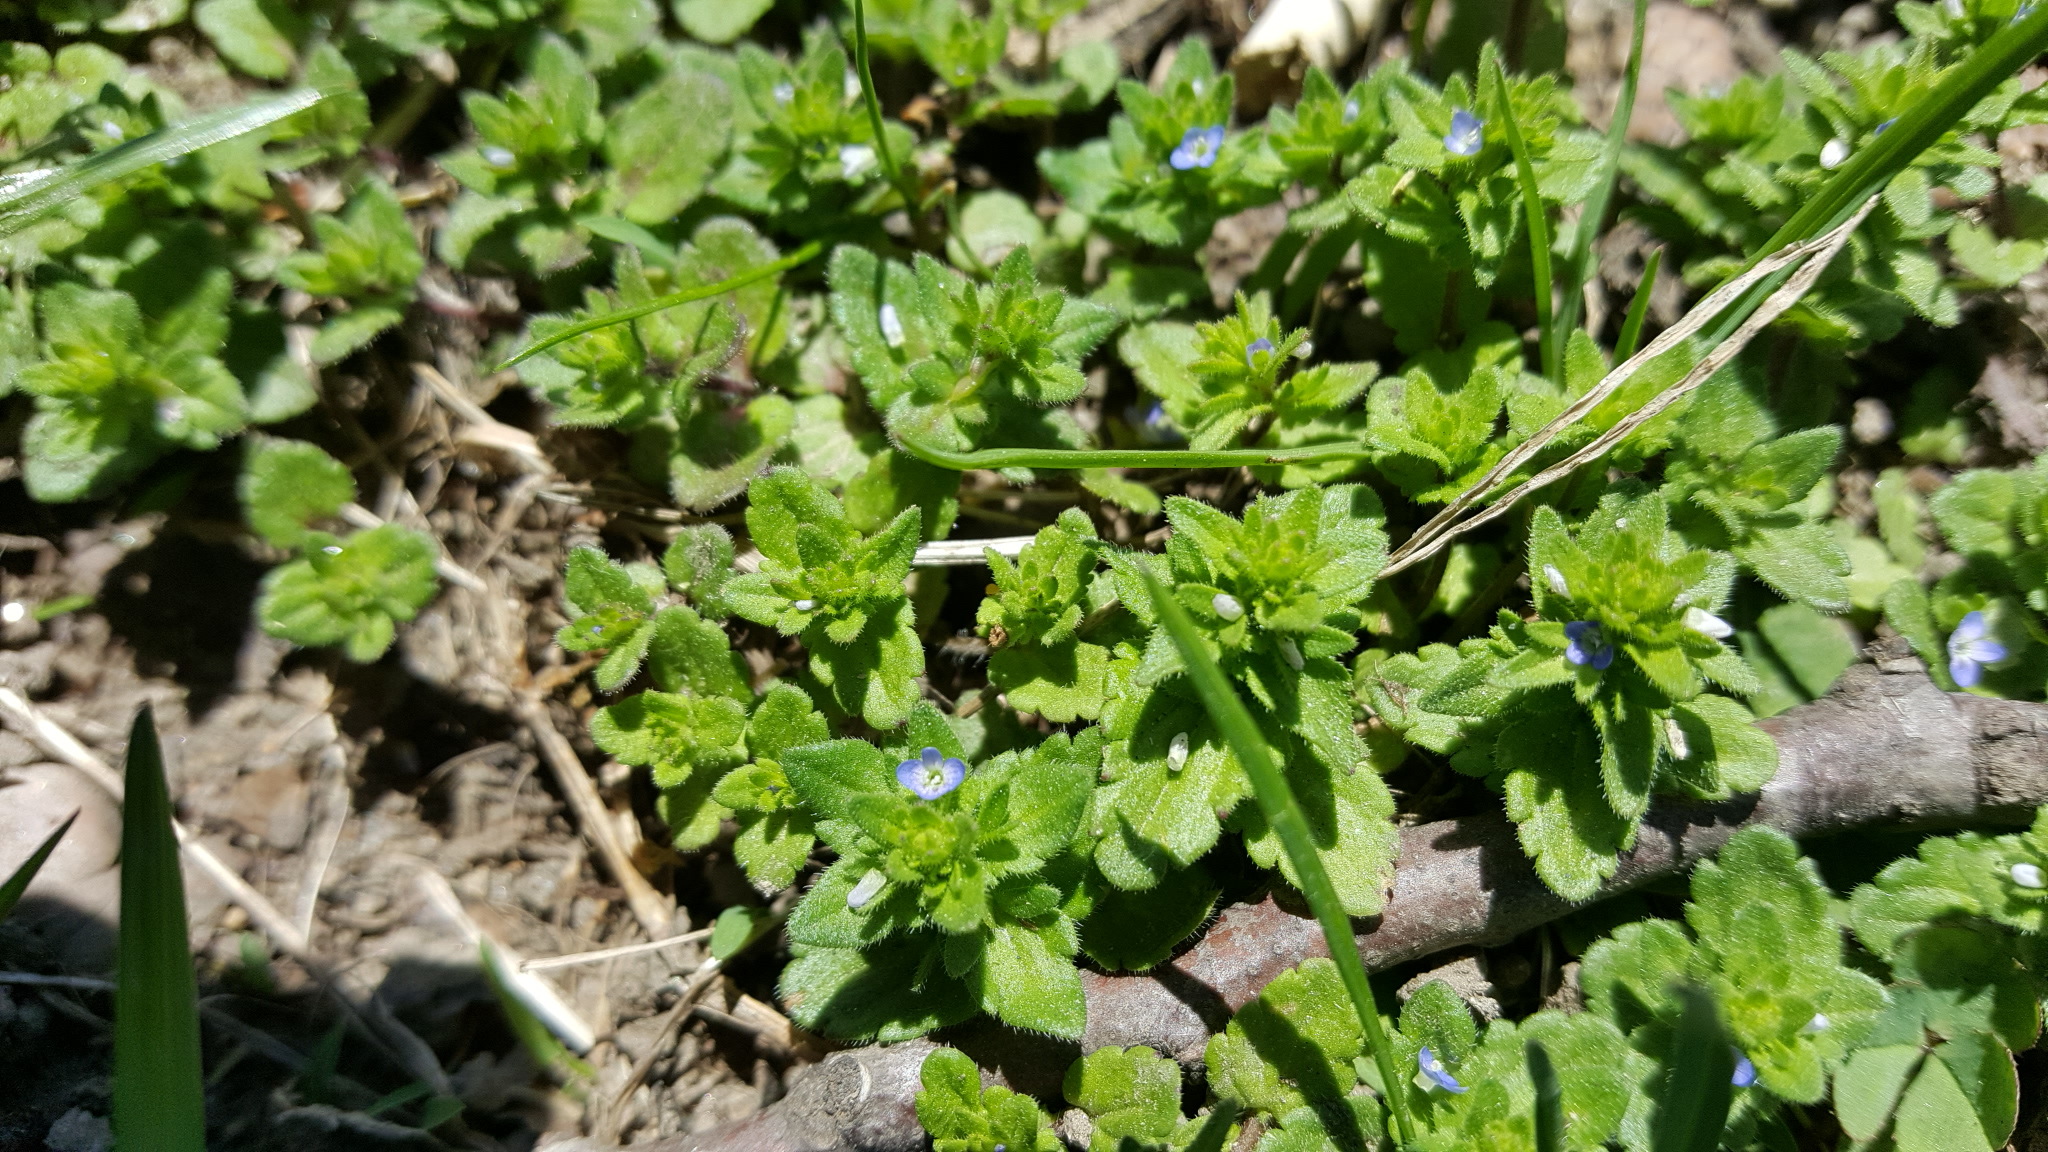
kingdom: Plantae
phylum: Tracheophyta
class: Magnoliopsida
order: Lamiales
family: Plantaginaceae
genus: Veronica
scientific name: Veronica arvensis
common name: Corn speedwell
